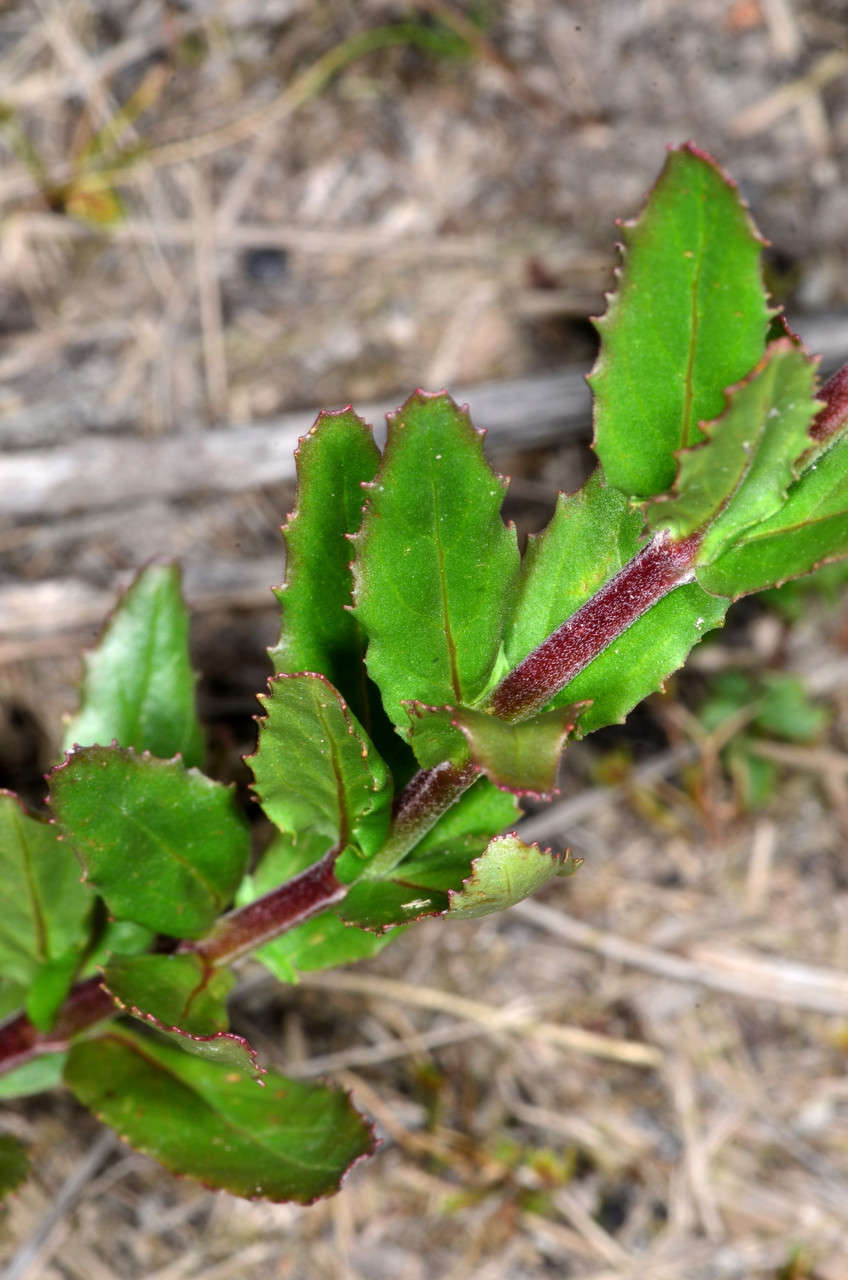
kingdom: Plantae
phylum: Tracheophyta
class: Magnoliopsida
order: Myrtales
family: Onagraceae
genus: Epilobium
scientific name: Epilobium billardierianum
